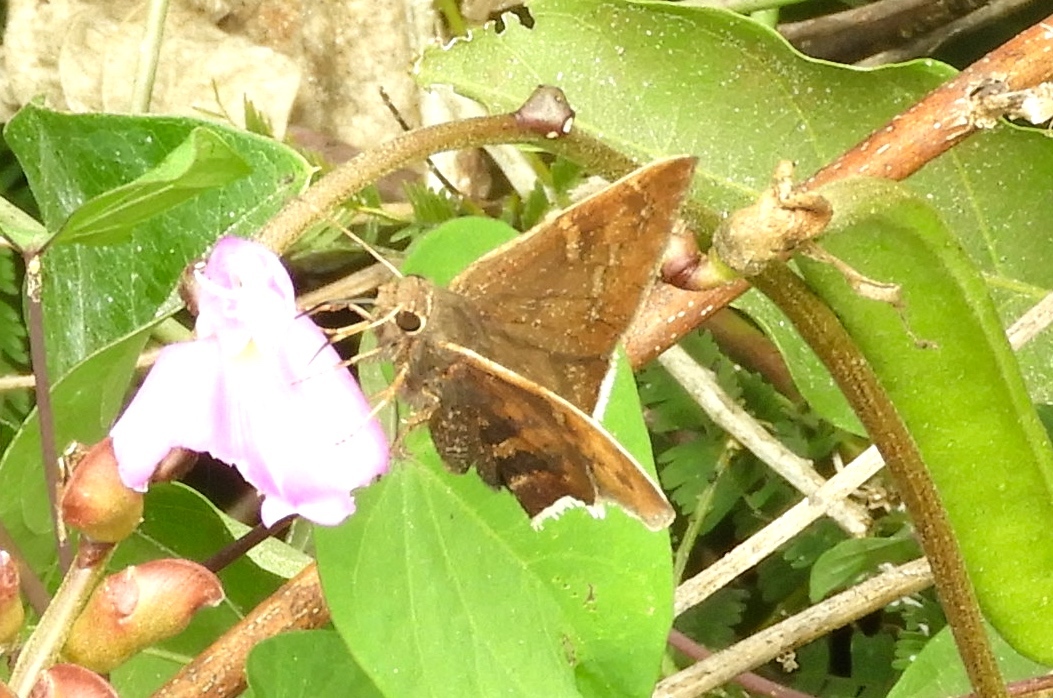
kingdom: Animalia
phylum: Arthropoda
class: Insecta
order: Lepidoptera
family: Hesperiidae
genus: Achalarus
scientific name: Achalarus Murgaria albociliatus
